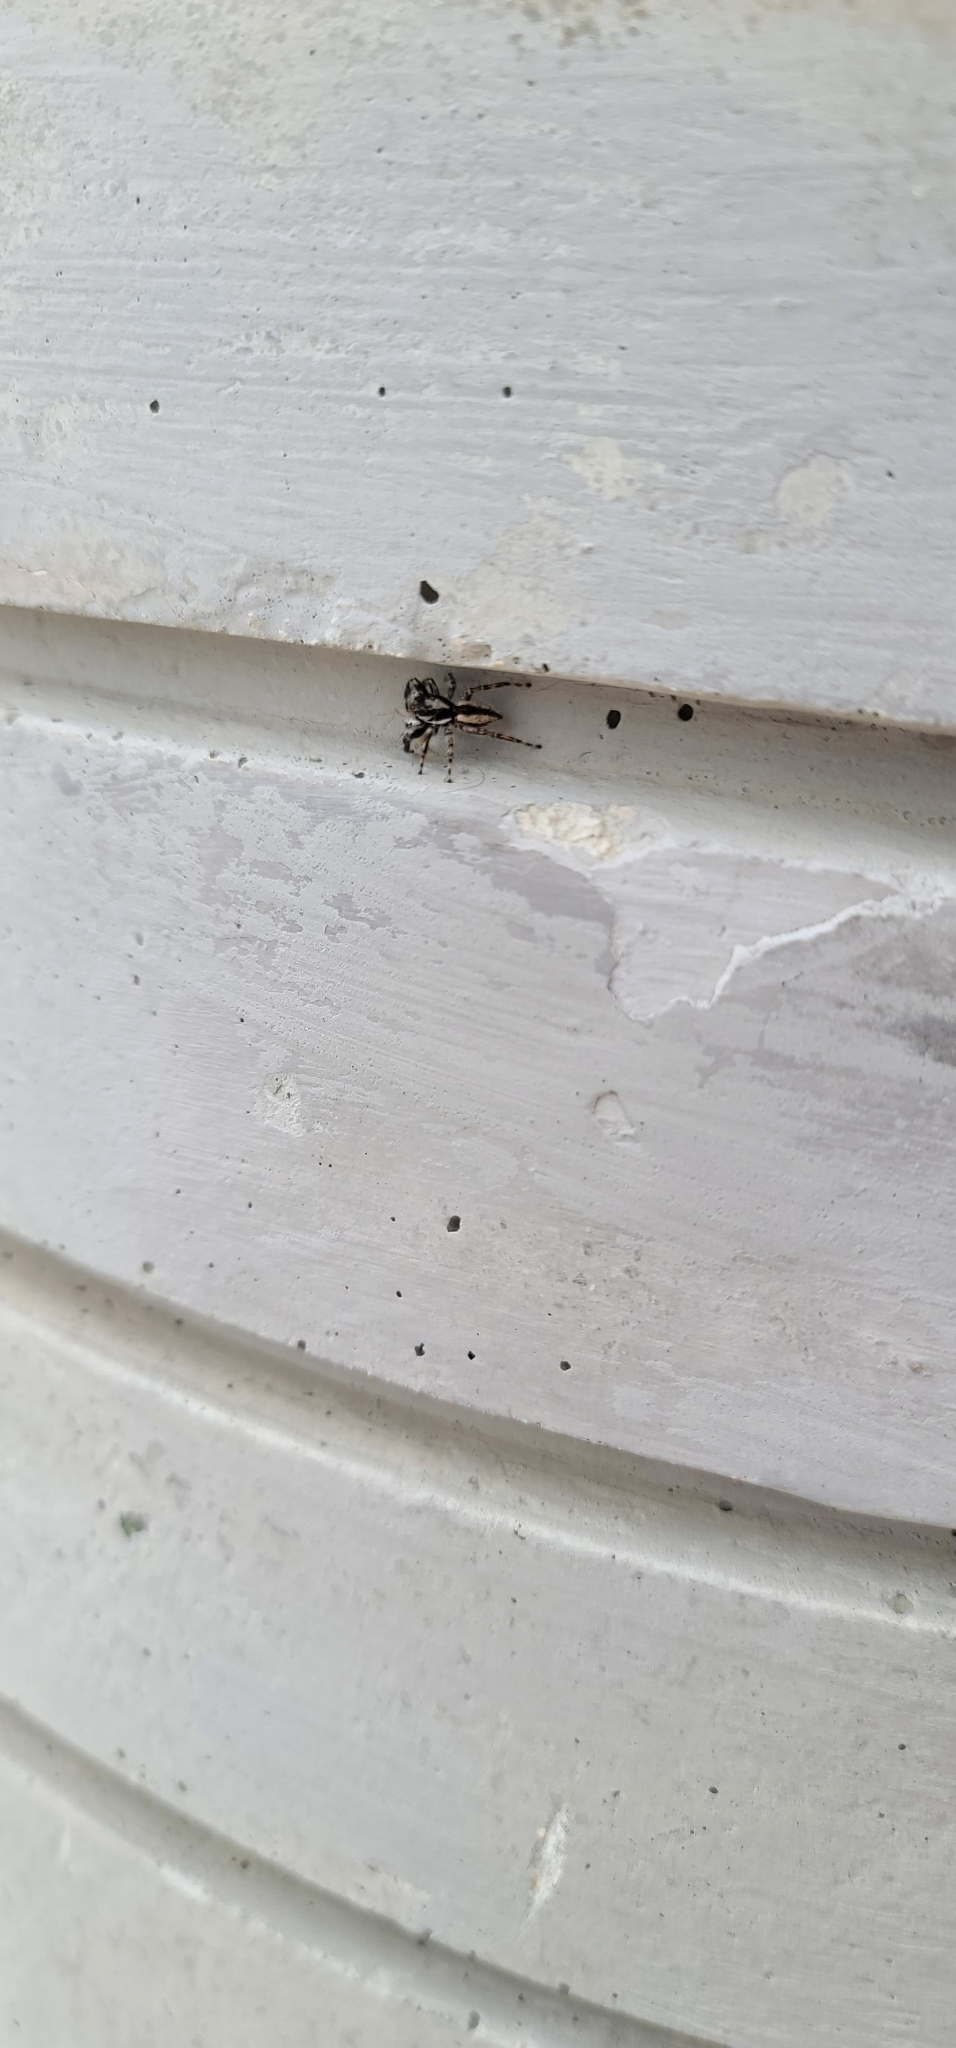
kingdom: Animalia
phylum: Arthropoda
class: Arachnida
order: Araneae
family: Salticidae
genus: Menemerus
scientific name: Menemerus bivittatus
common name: Gray wall jumper
